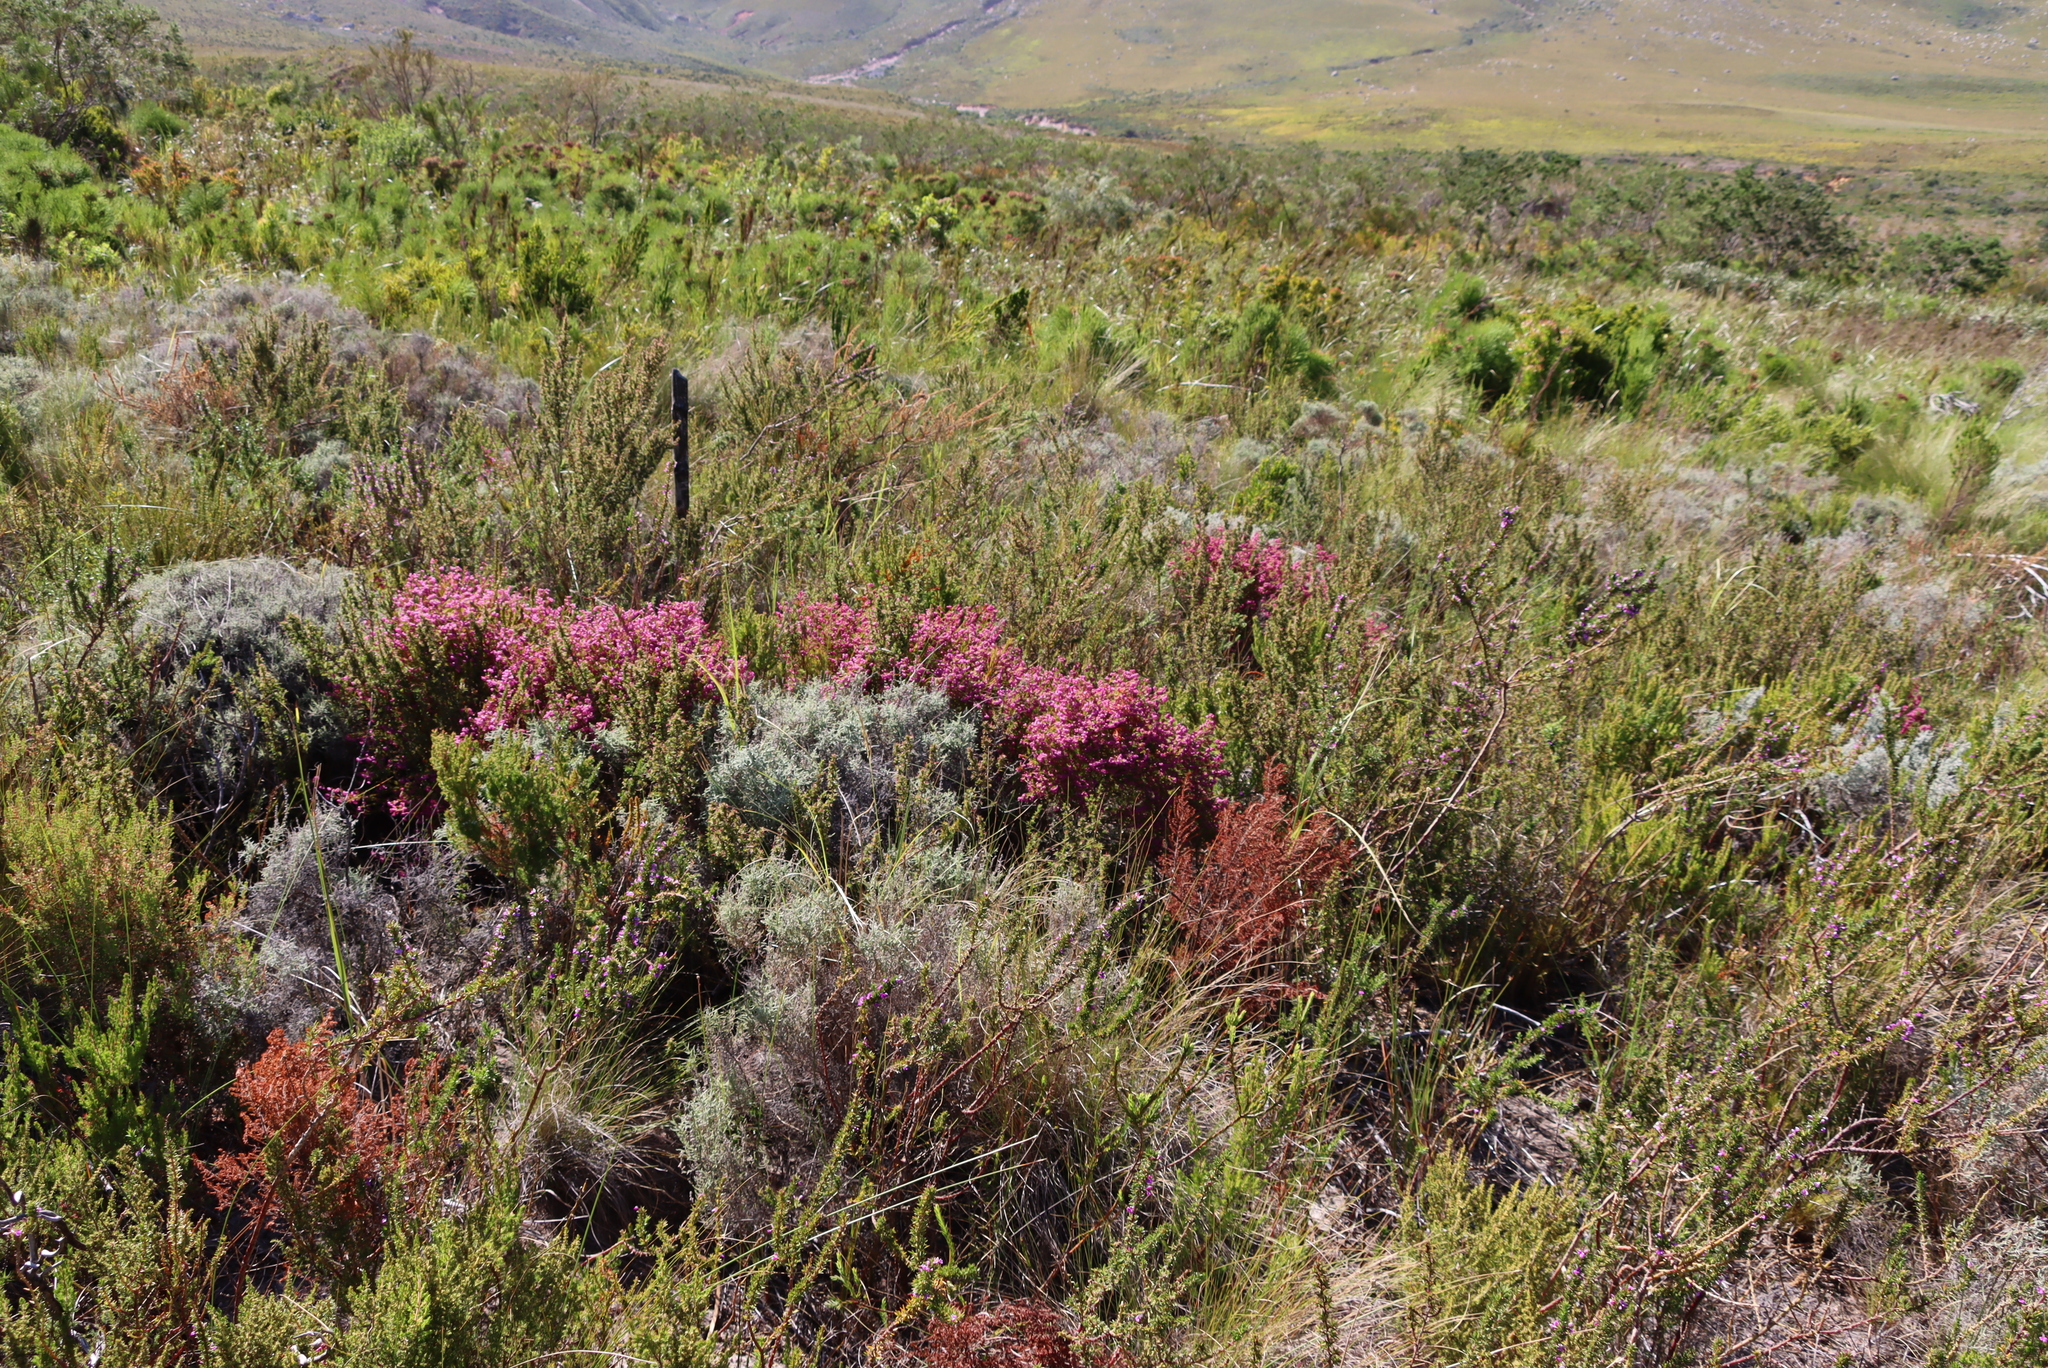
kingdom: Plantae
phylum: Tracheophyta
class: Magnoliopsida
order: Ericales
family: Ericaceae
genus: Erica
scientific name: Erica multumbellifera
